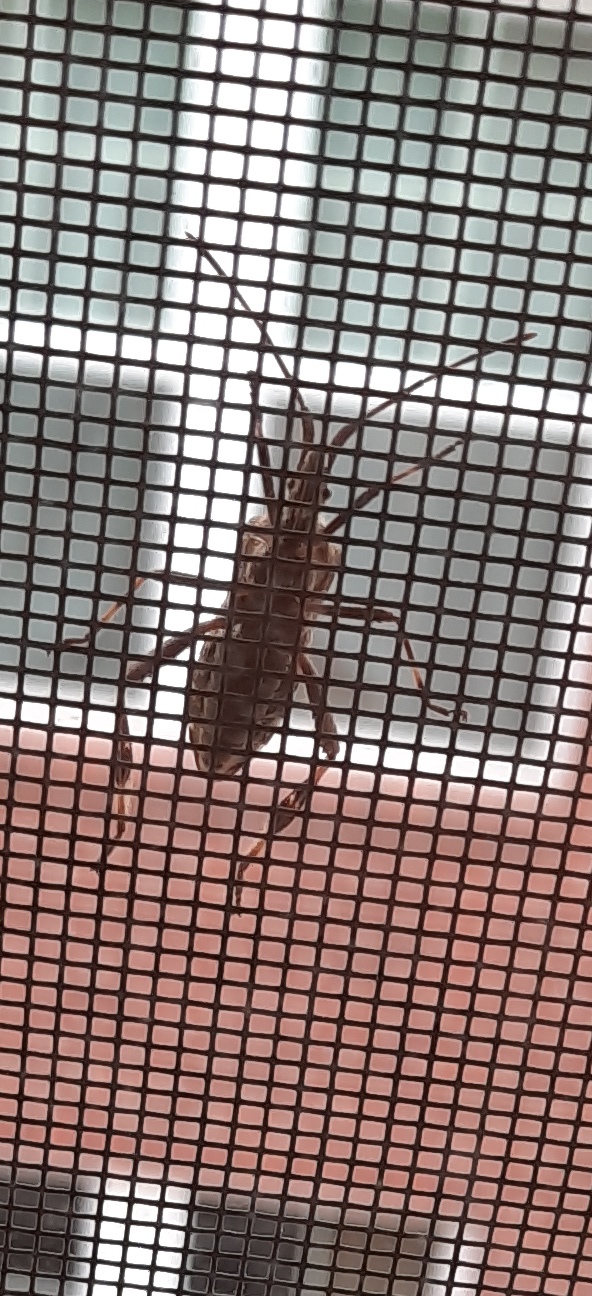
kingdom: Animalia
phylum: Arthropoda
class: Insecta
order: Hemiptera
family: Coreidae
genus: Leptoglossus
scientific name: Leptoglossus occidentalis
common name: Western conifer-seed bug
